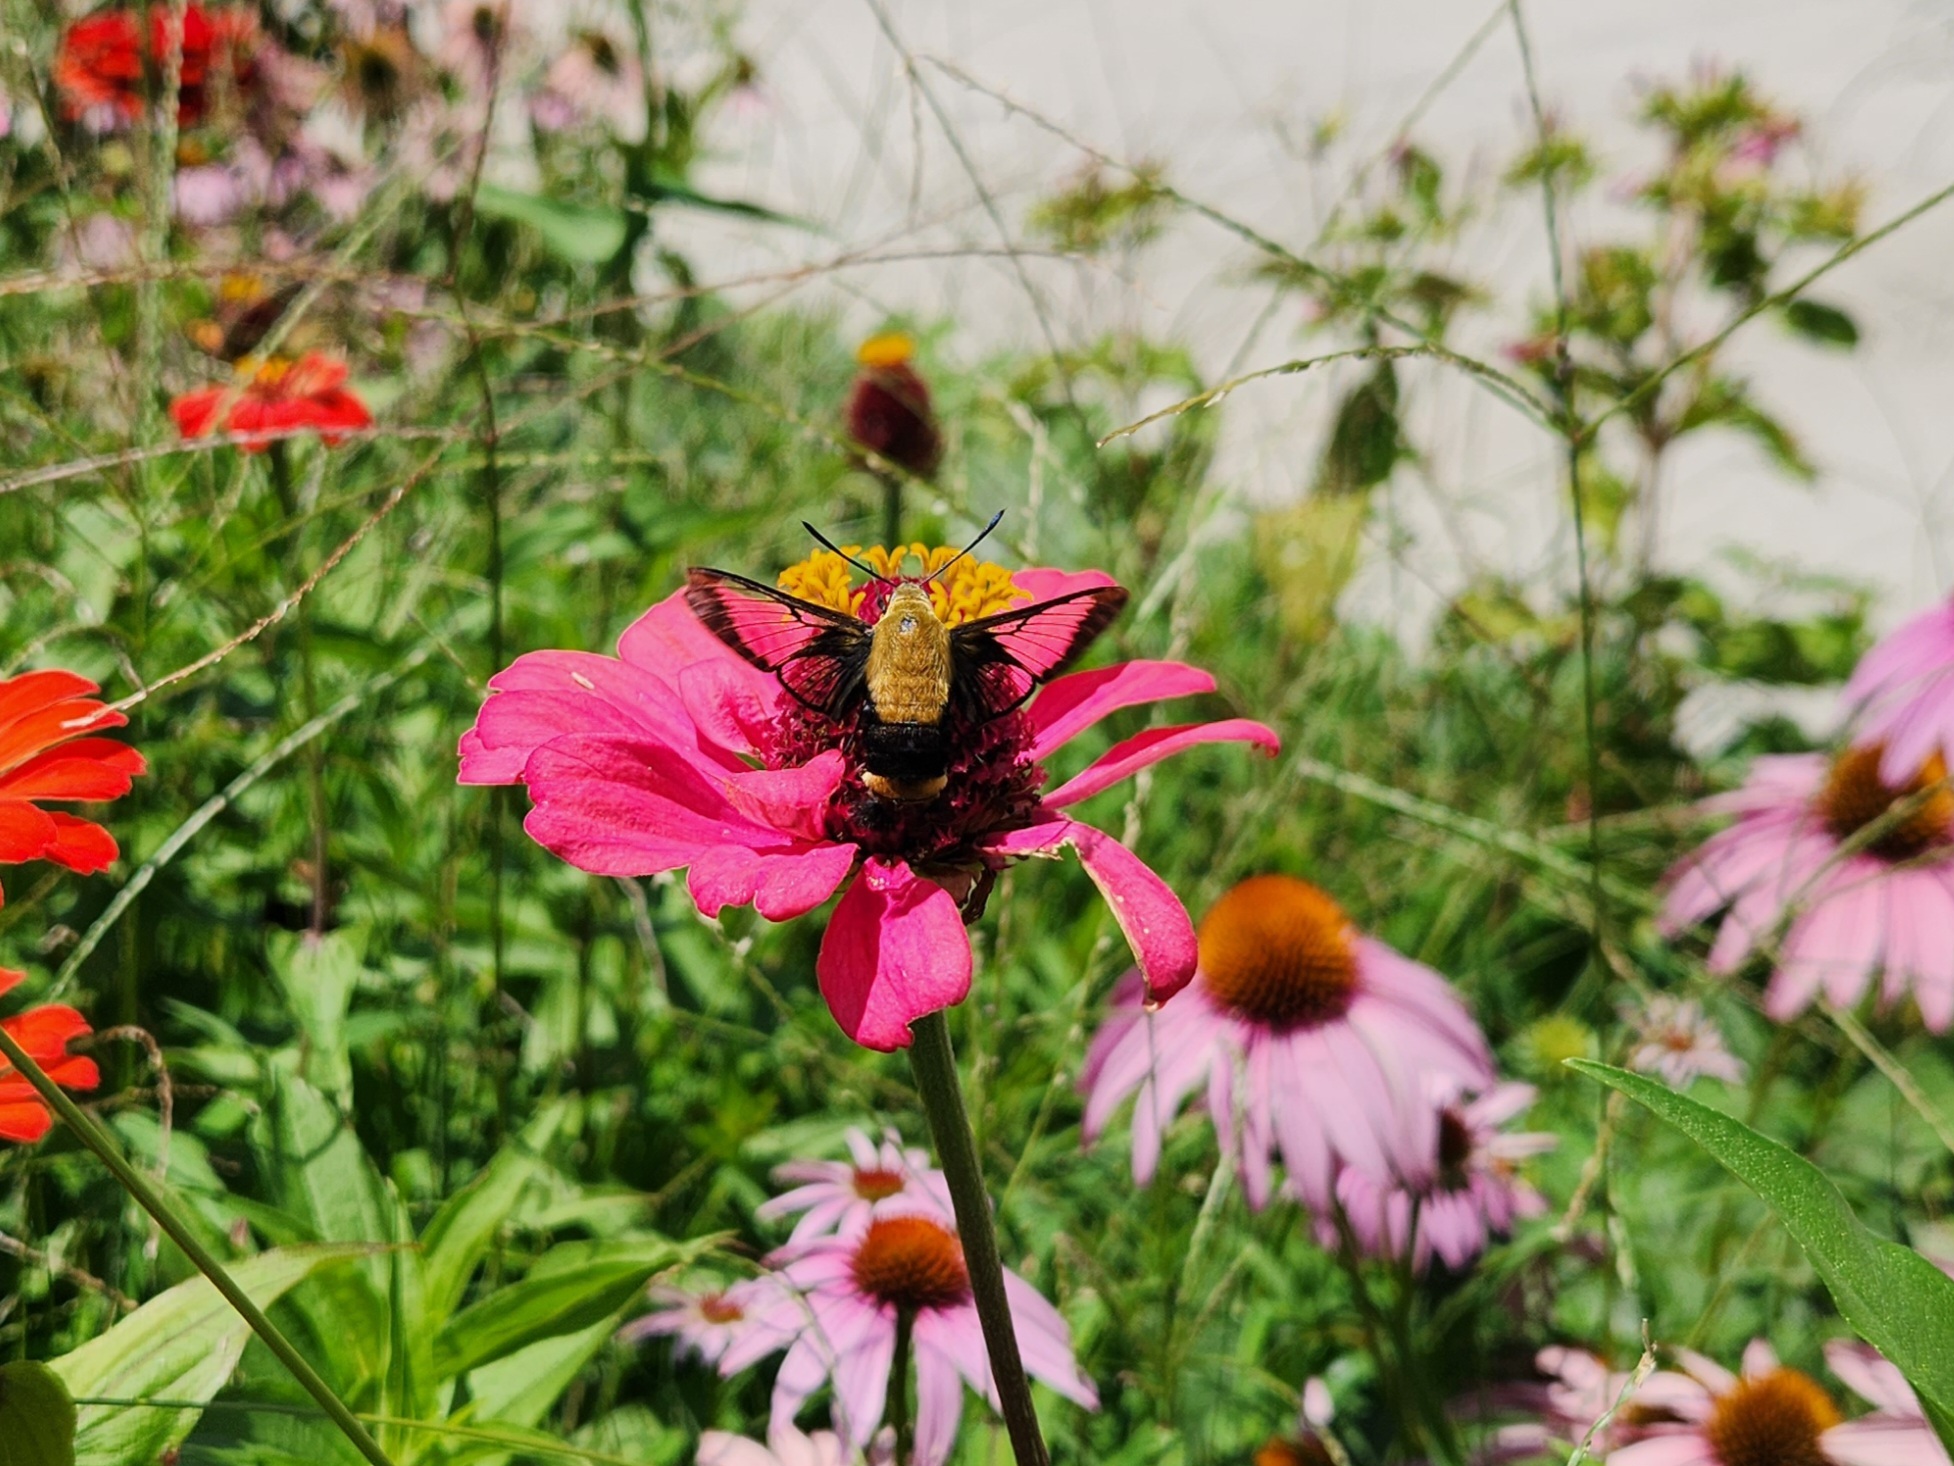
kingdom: Animalia
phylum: Arthropoda
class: Insecta
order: Lepidoptera
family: Sphingidae
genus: Hemaris
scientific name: Hemaris diffinis
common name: Bumblebee moth
